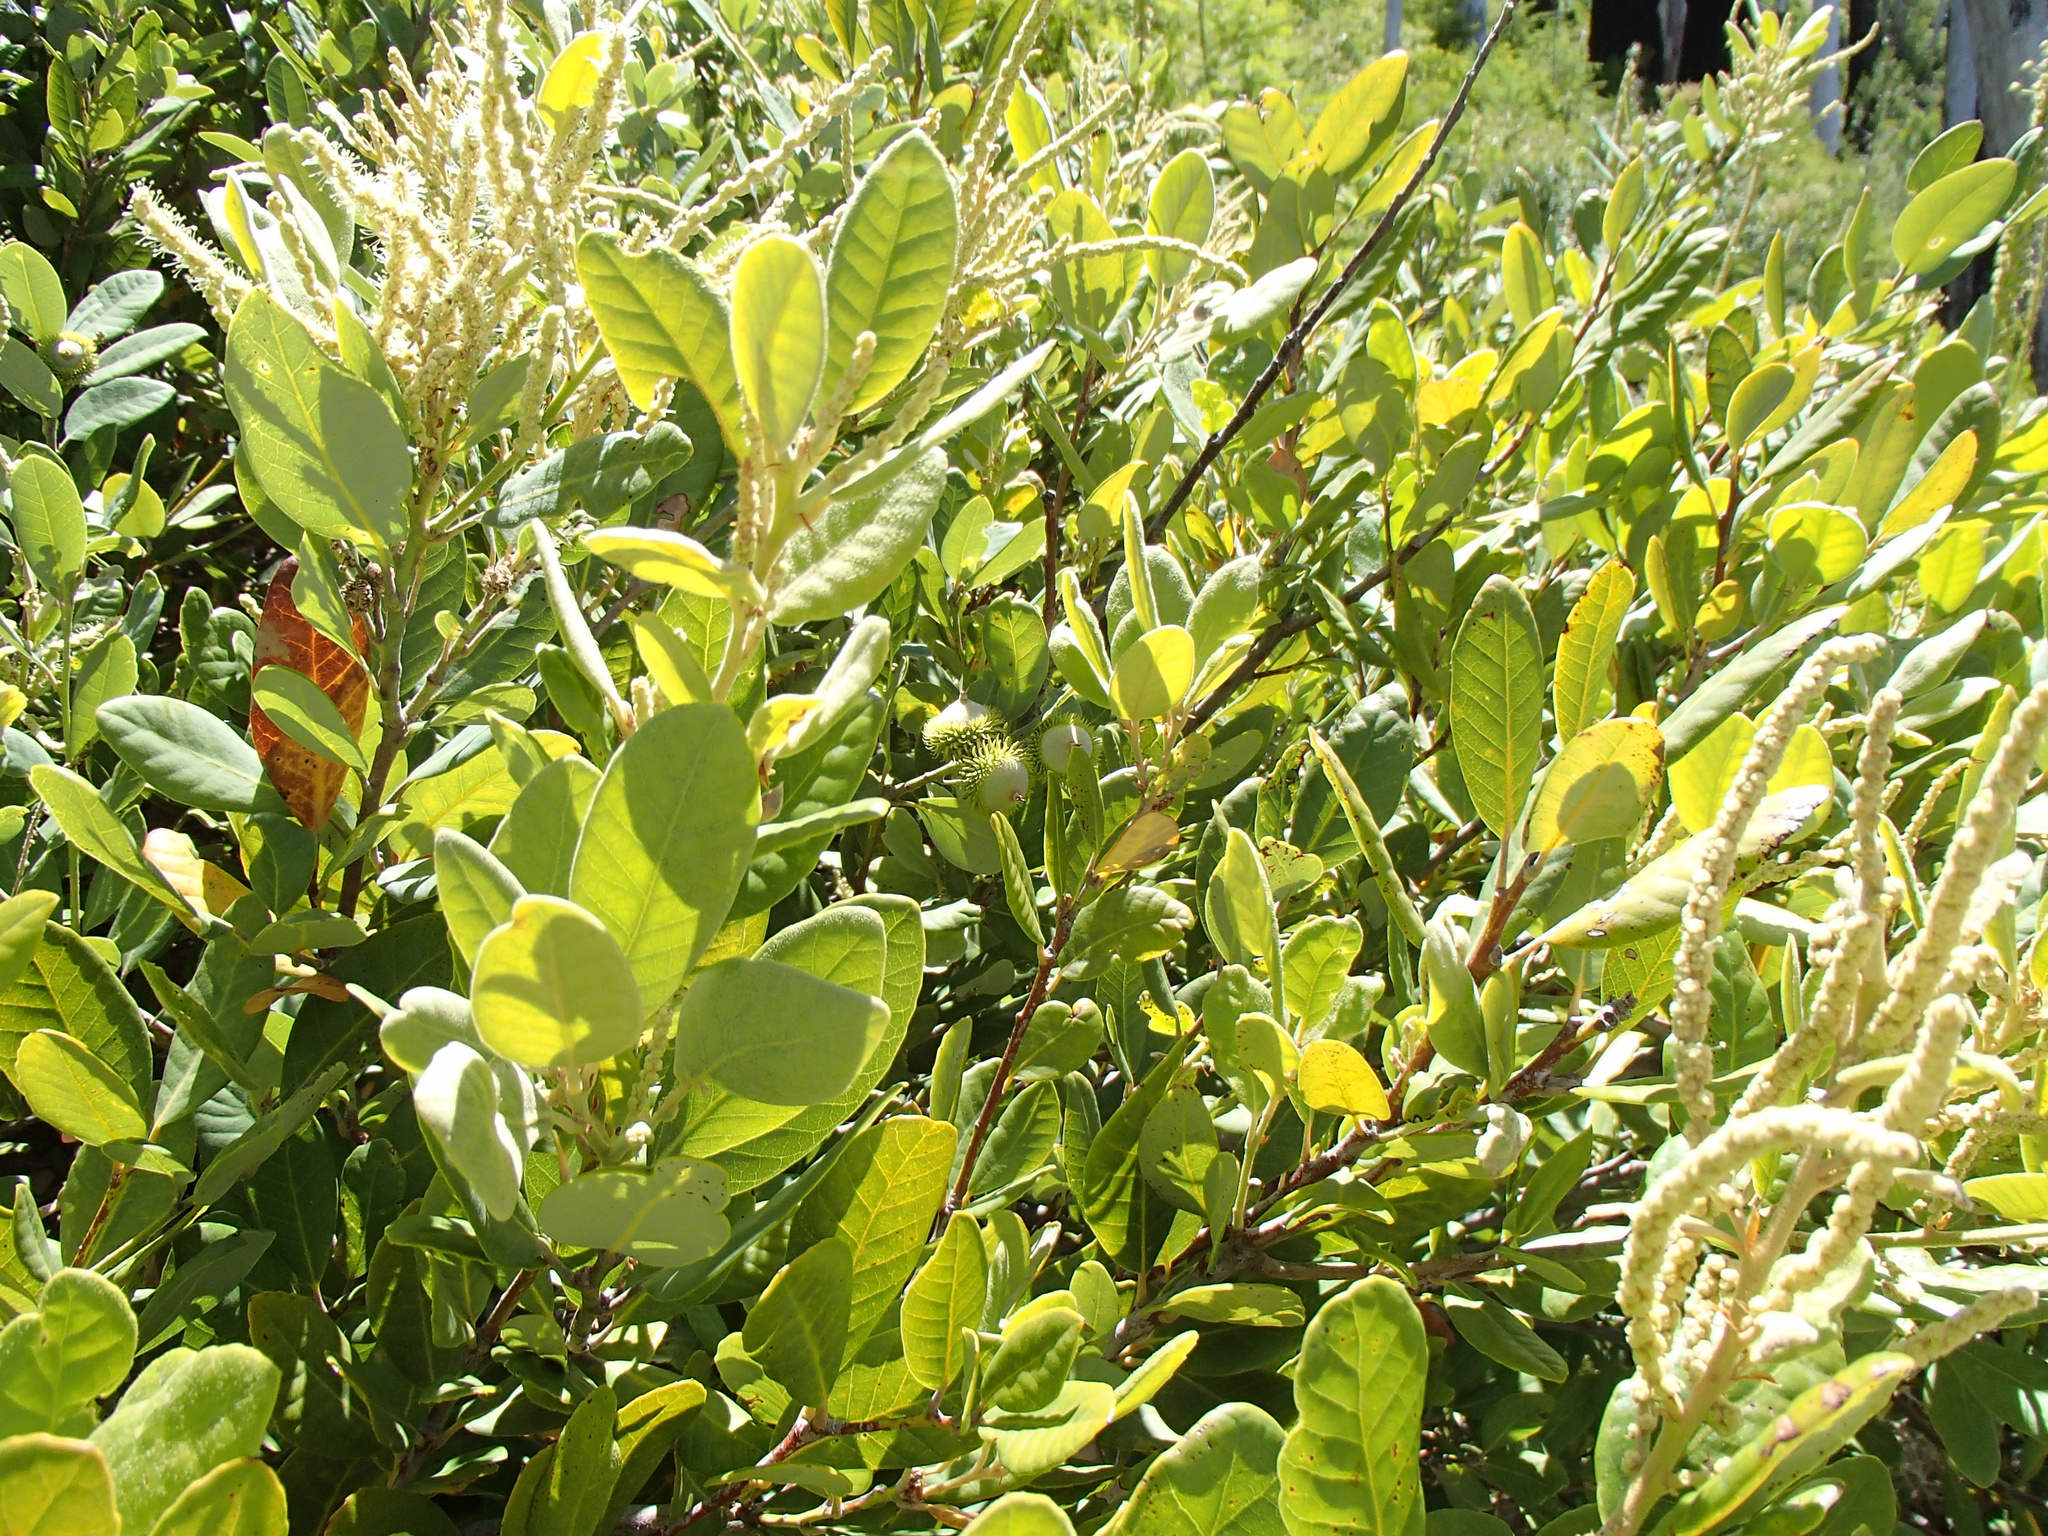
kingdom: Plantae
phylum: Tracheophyta
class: Magnoliopsida
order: Fagales
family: Fagaceae
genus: Notholithocarpus
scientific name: Notholithocarpus densiflorus
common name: Tan bark oak
